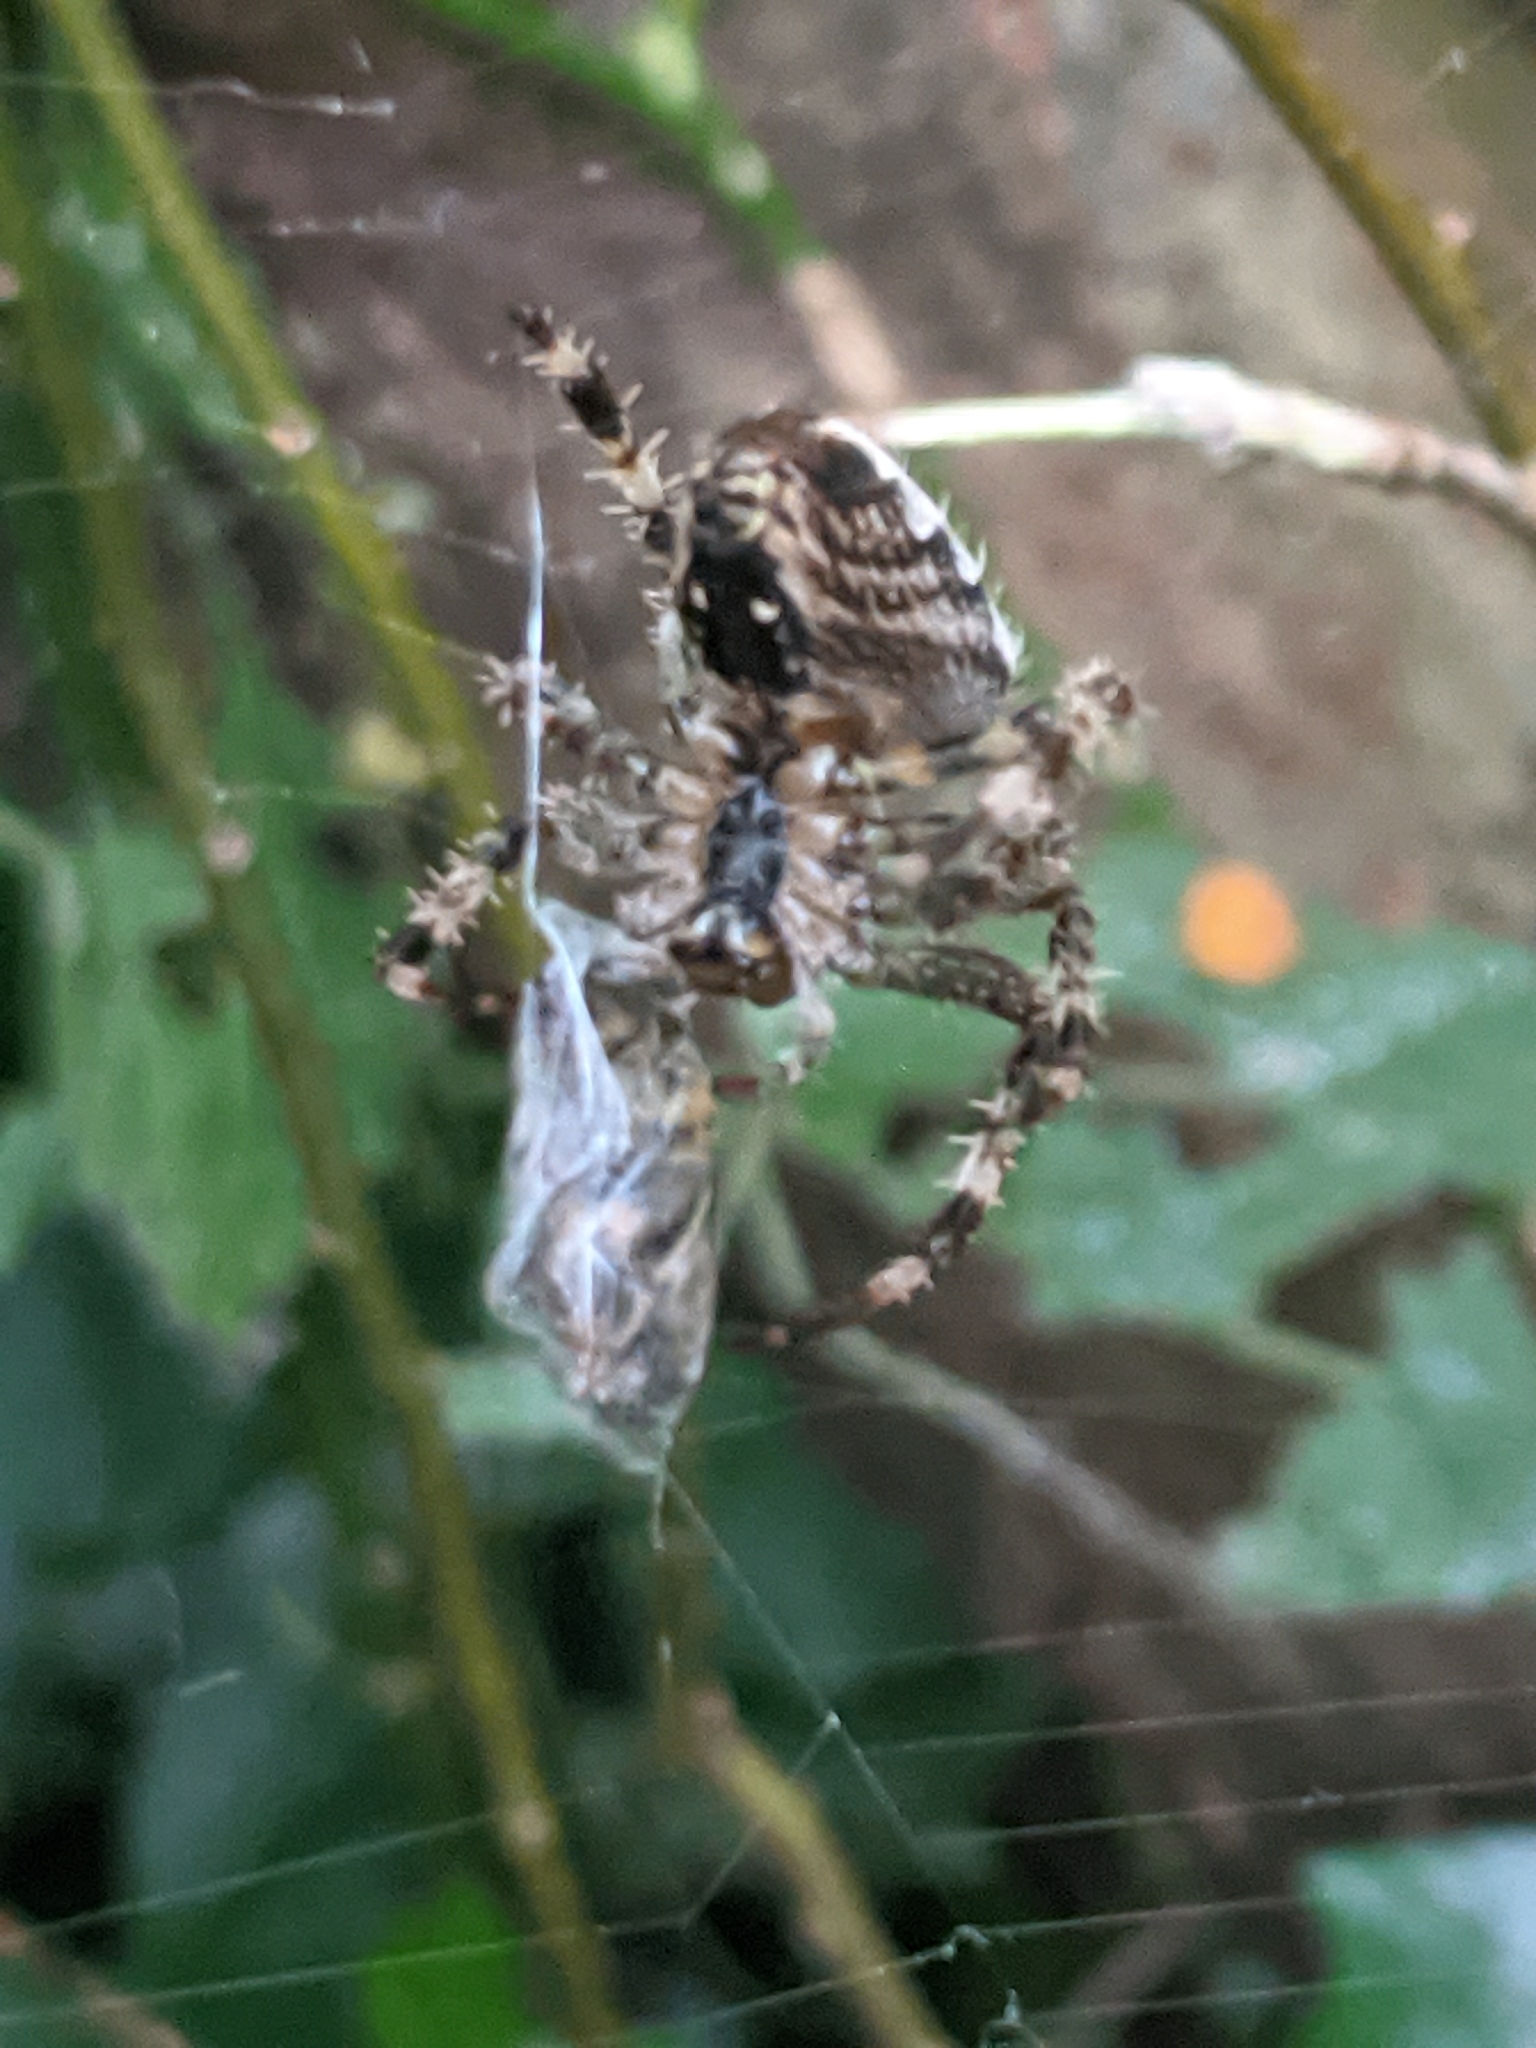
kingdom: Animalia
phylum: Arthropoda
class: Arachnida
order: Araneae
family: Araneidae
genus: Araneus
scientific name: Araneus diadematus
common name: Cross orbweaver
